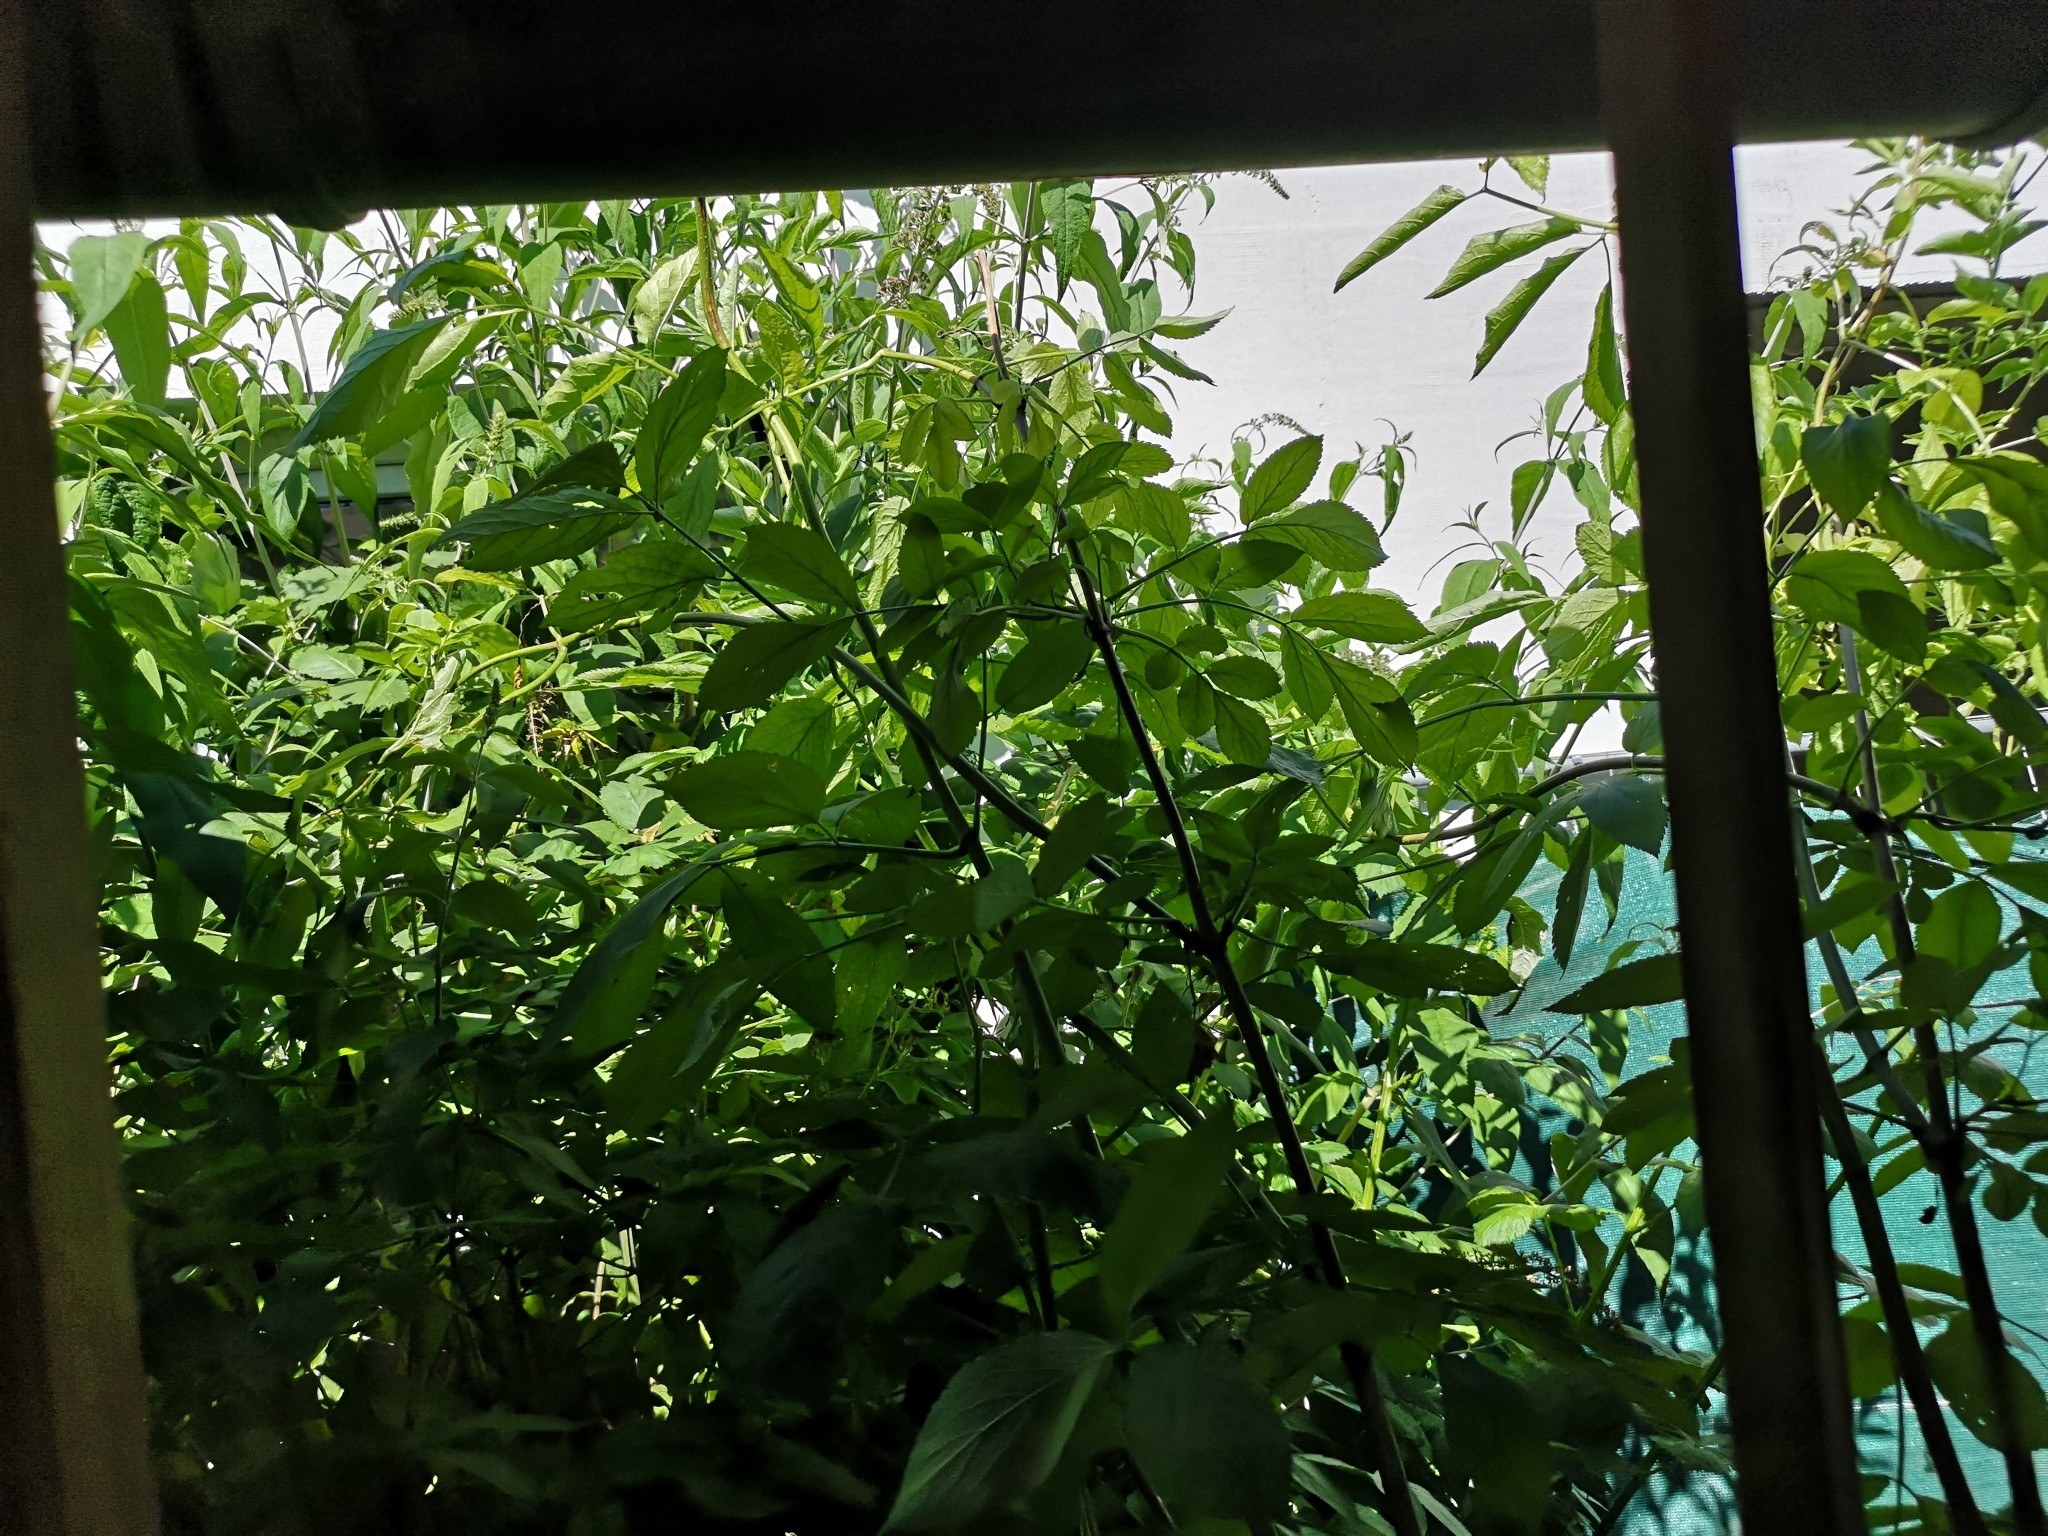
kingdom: Plantae
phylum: Tracheophyta
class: Magnoliopsida
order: Dipsacales
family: Viburnaceae
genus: Sambucus
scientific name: Sambucus nigra
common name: Elder
